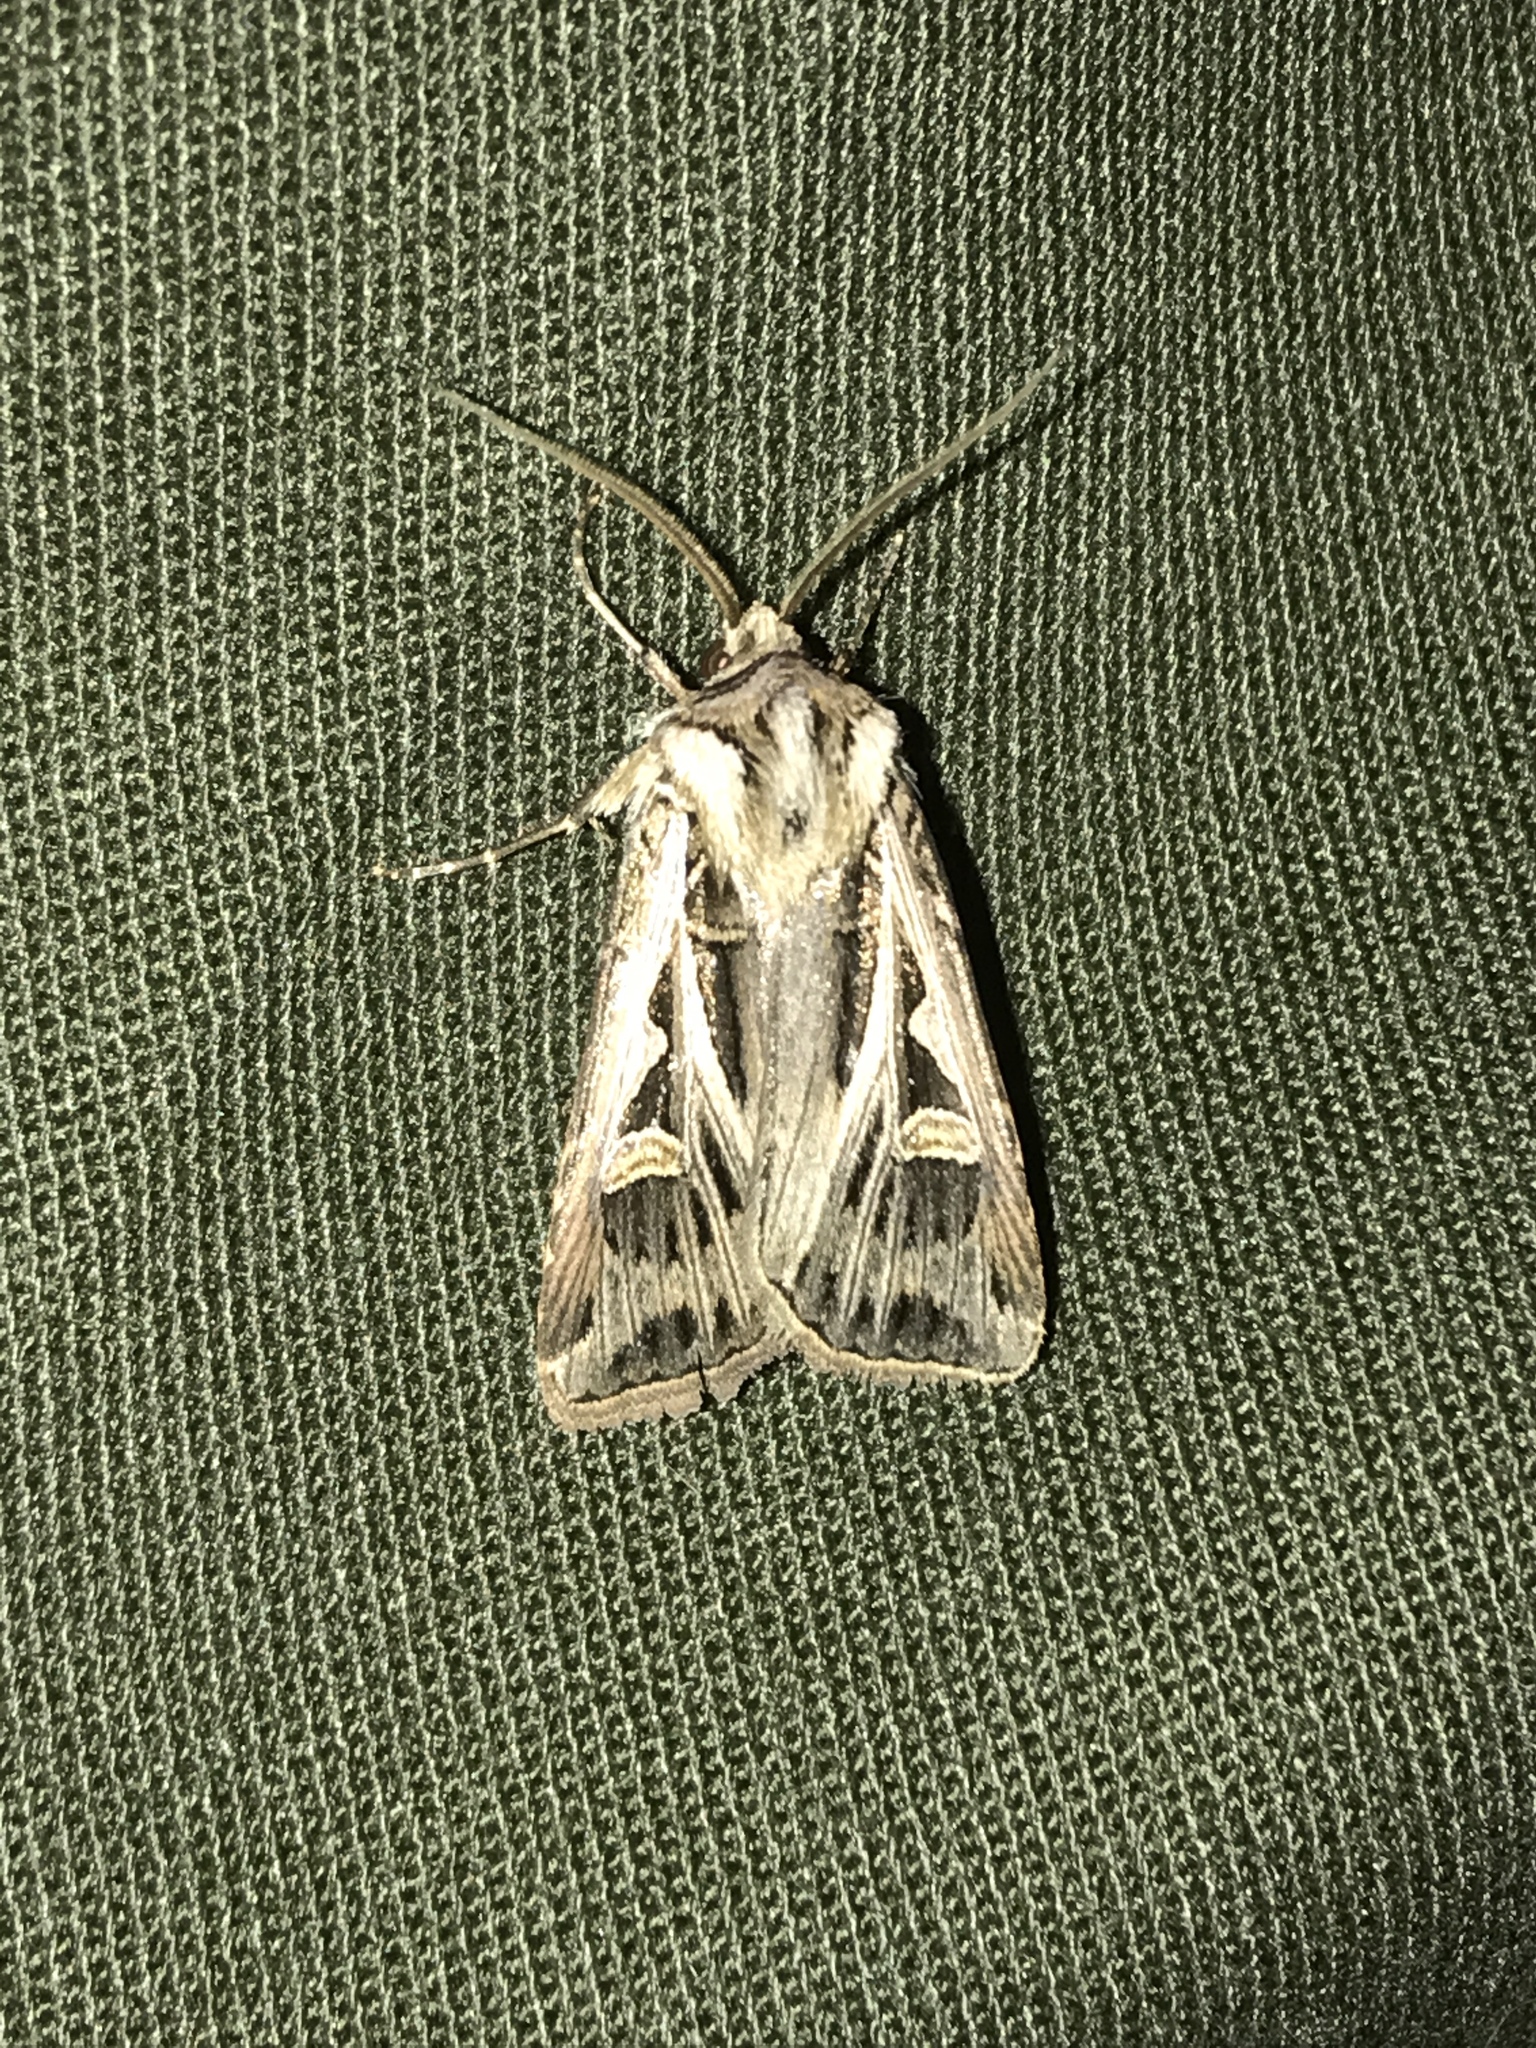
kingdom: Animalia
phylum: Arthropoda
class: Insecta
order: Lepidoptera
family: Noctuidae
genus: Feltia
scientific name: Feltia jaculifera
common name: Dingy cutworm moth
